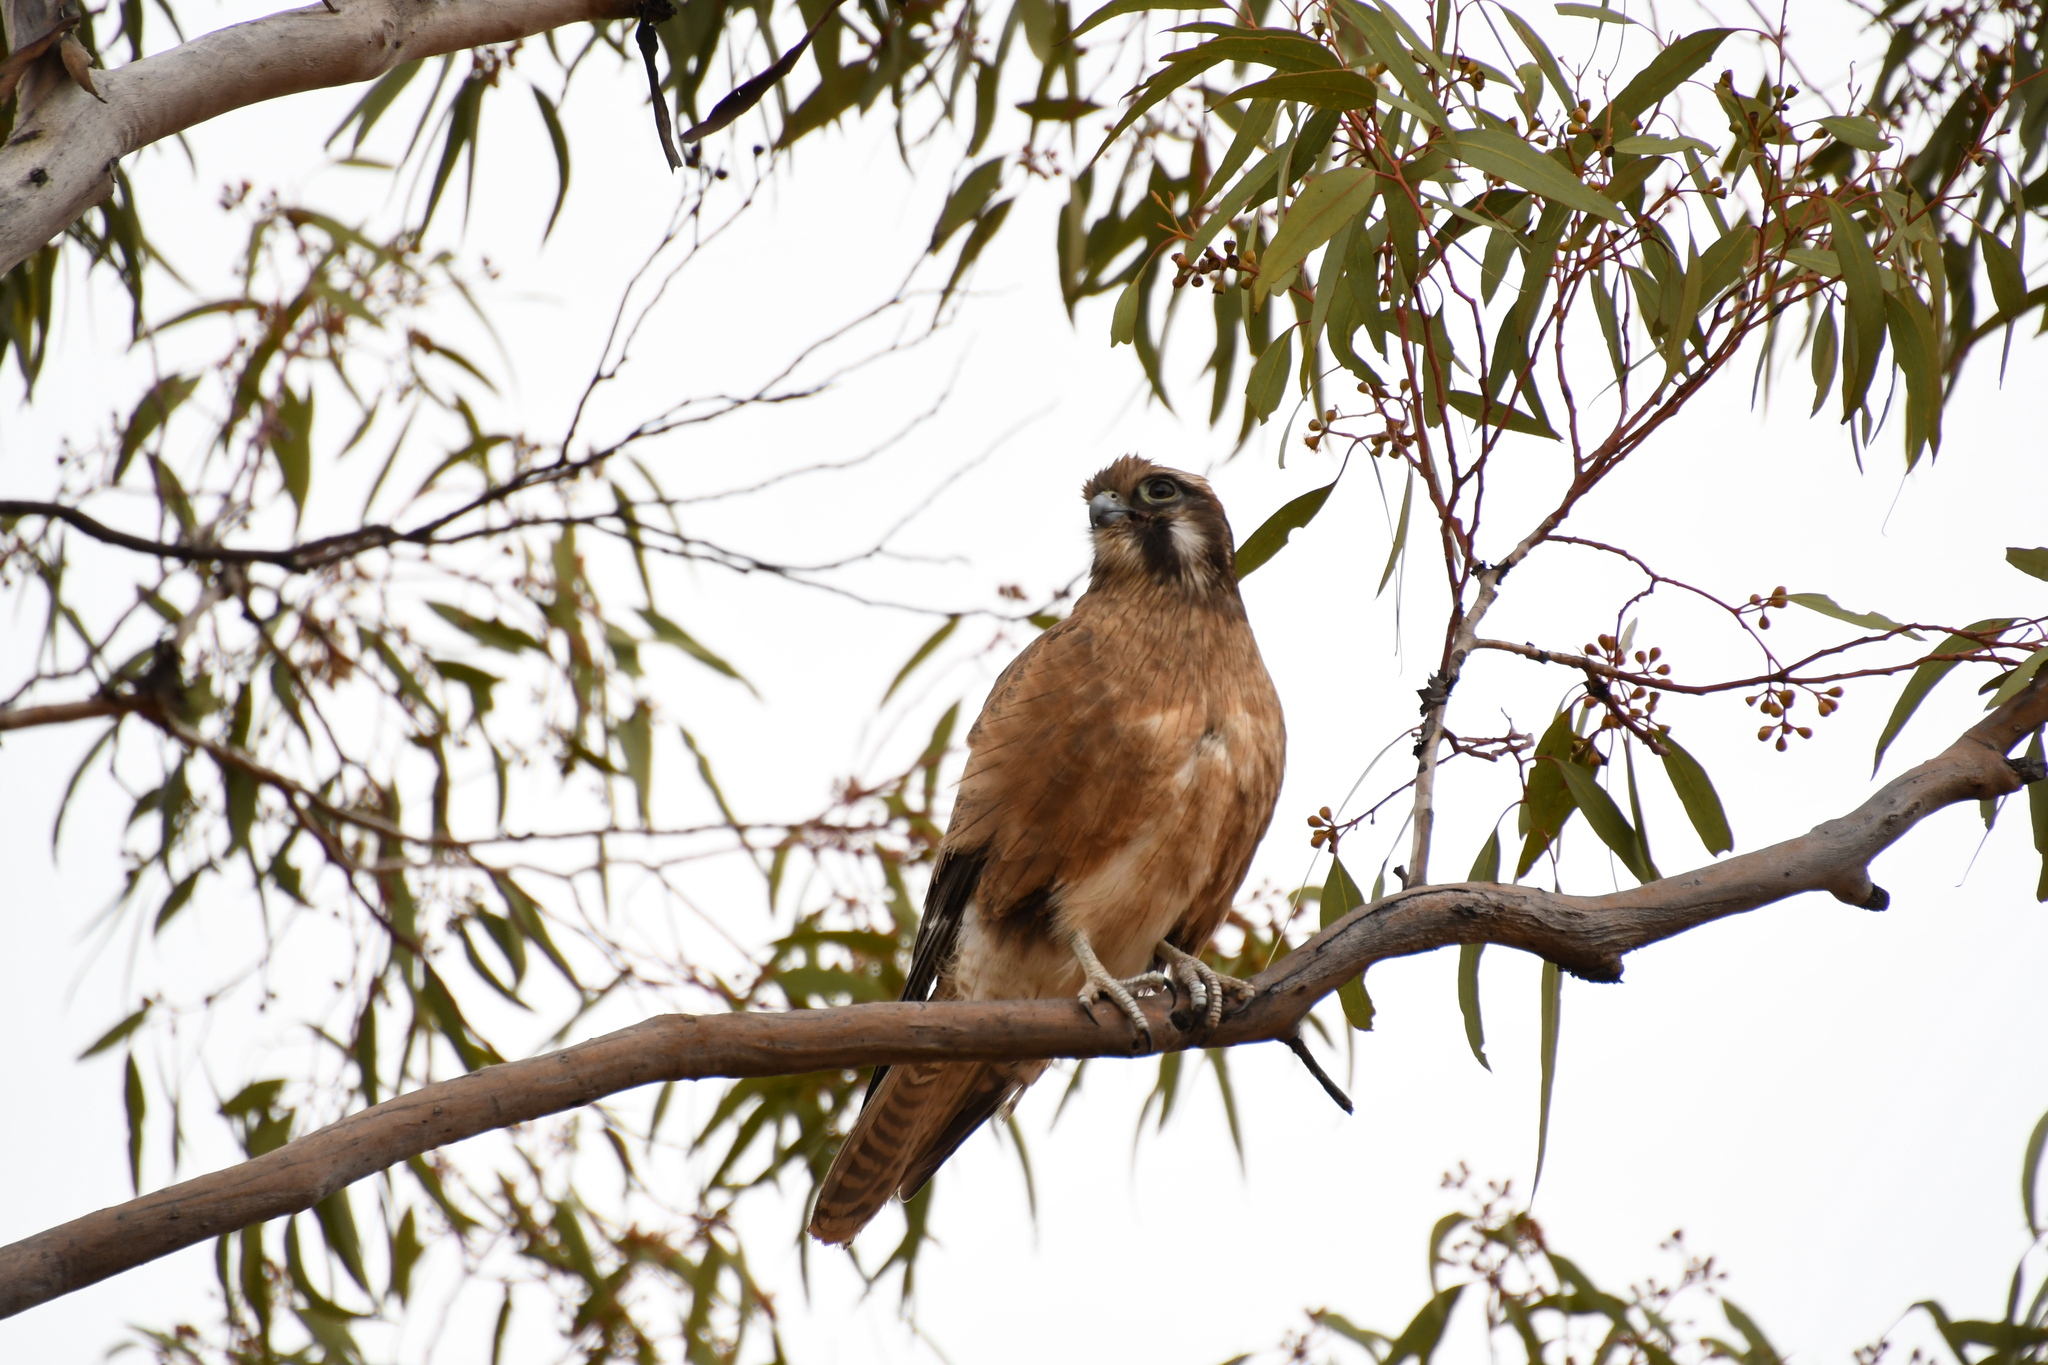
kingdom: Animalia
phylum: Chordata
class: Aves
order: Falconiformes
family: Falconidae
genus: Falco
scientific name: Falco berigora
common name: Brown falcon
